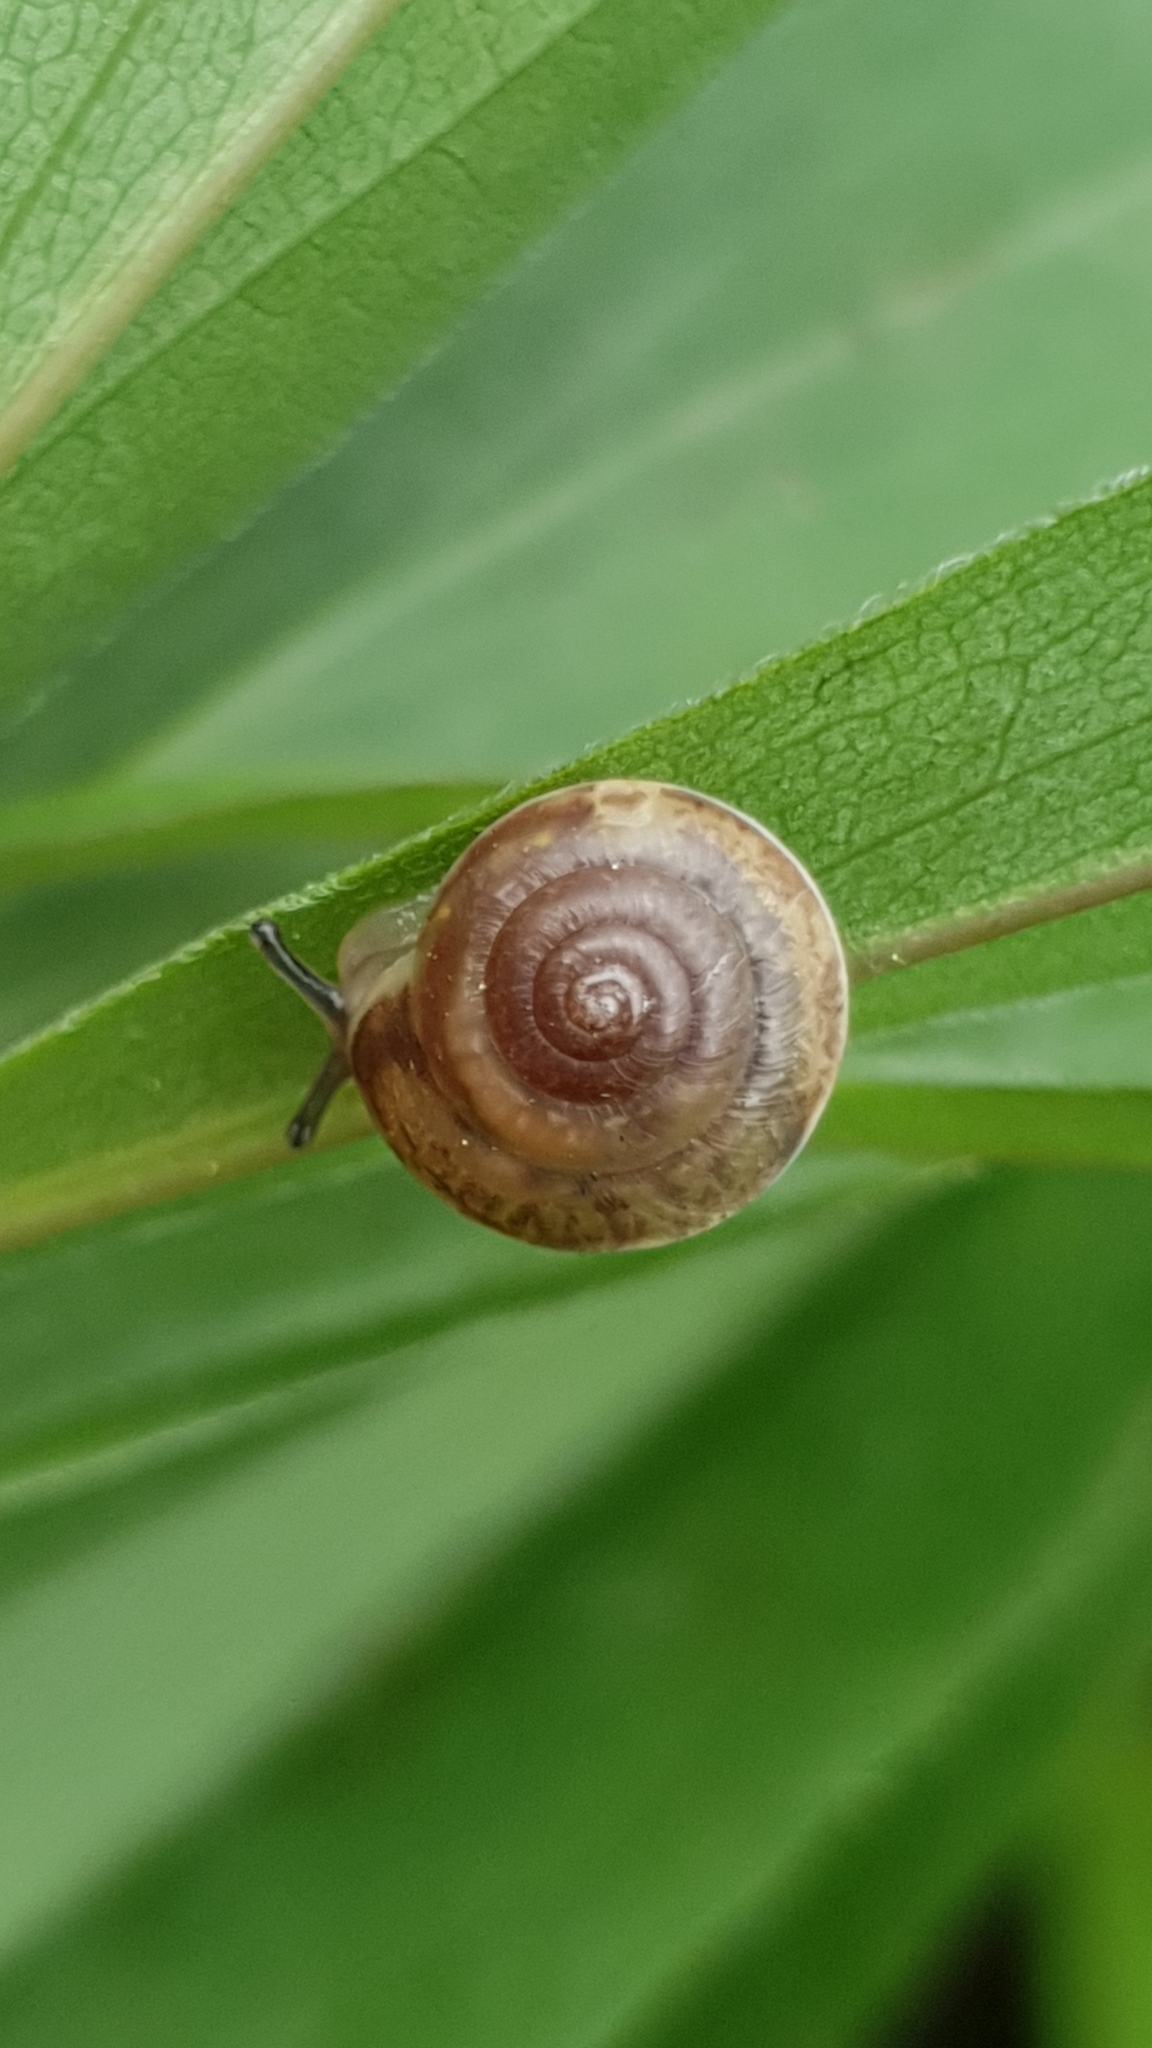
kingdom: Animalia
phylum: Mollusca
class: Gastropoda
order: Stylommatophora
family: Hygromiidae
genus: Hygromia
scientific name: Hygromia cinctella
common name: Girdled snail
